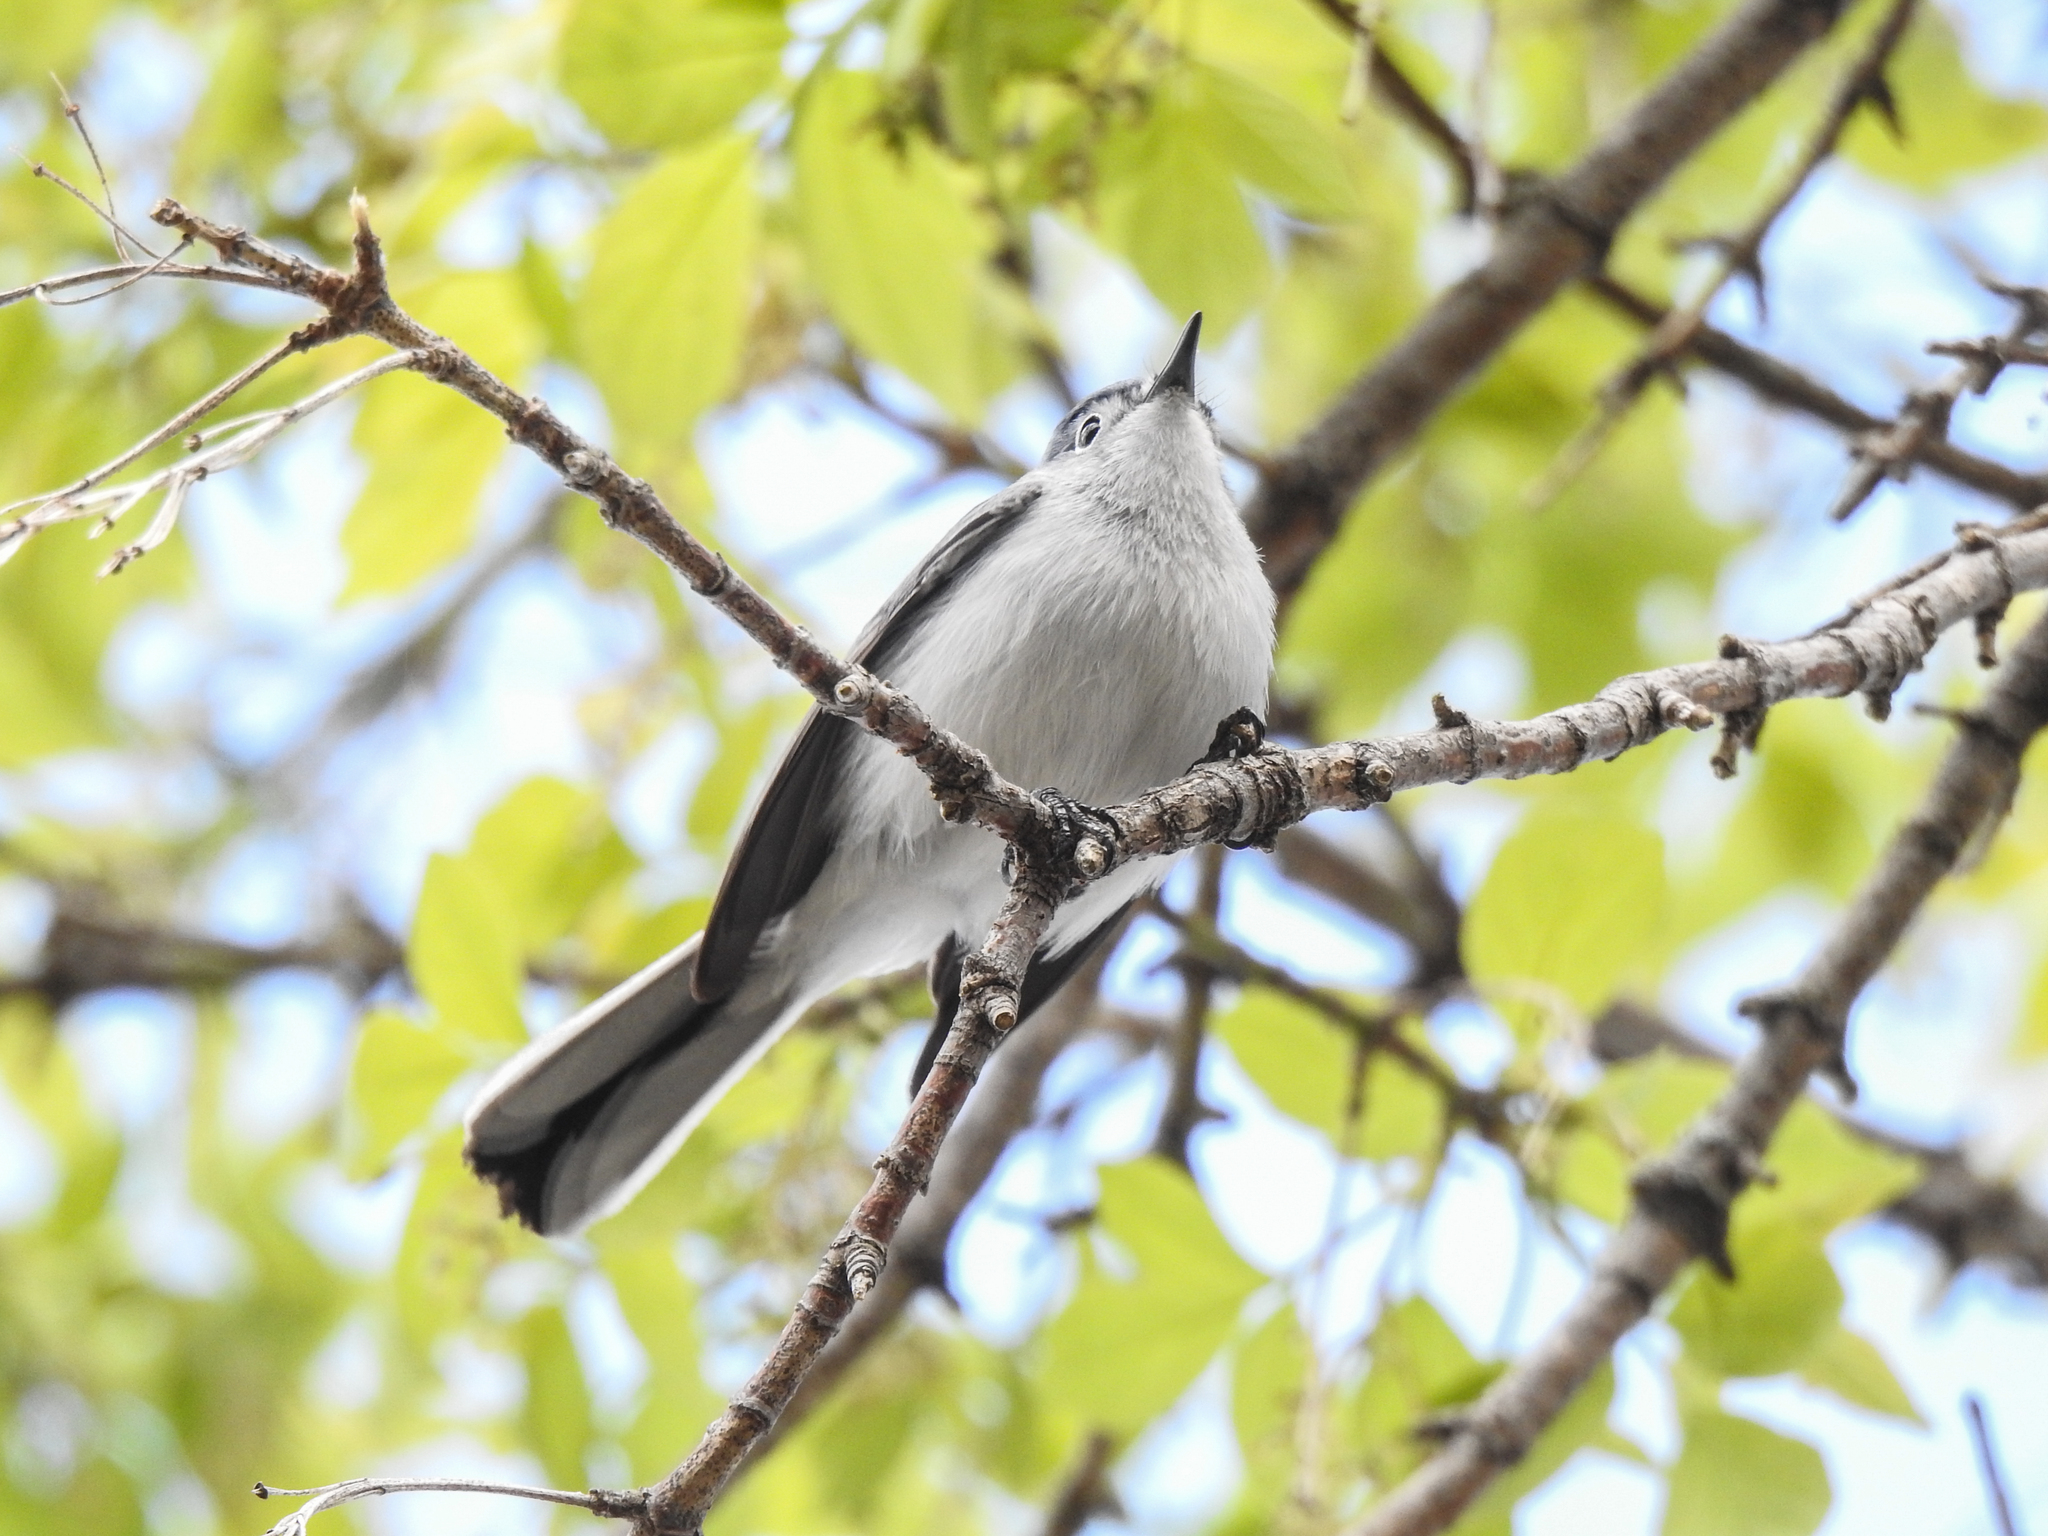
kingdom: Animalia
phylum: Chordata
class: Aves
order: Passeriformes
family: Polioptilidae
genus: Polioptila
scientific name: Polioptila caerulea
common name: Blue-gray gnatcatcher
